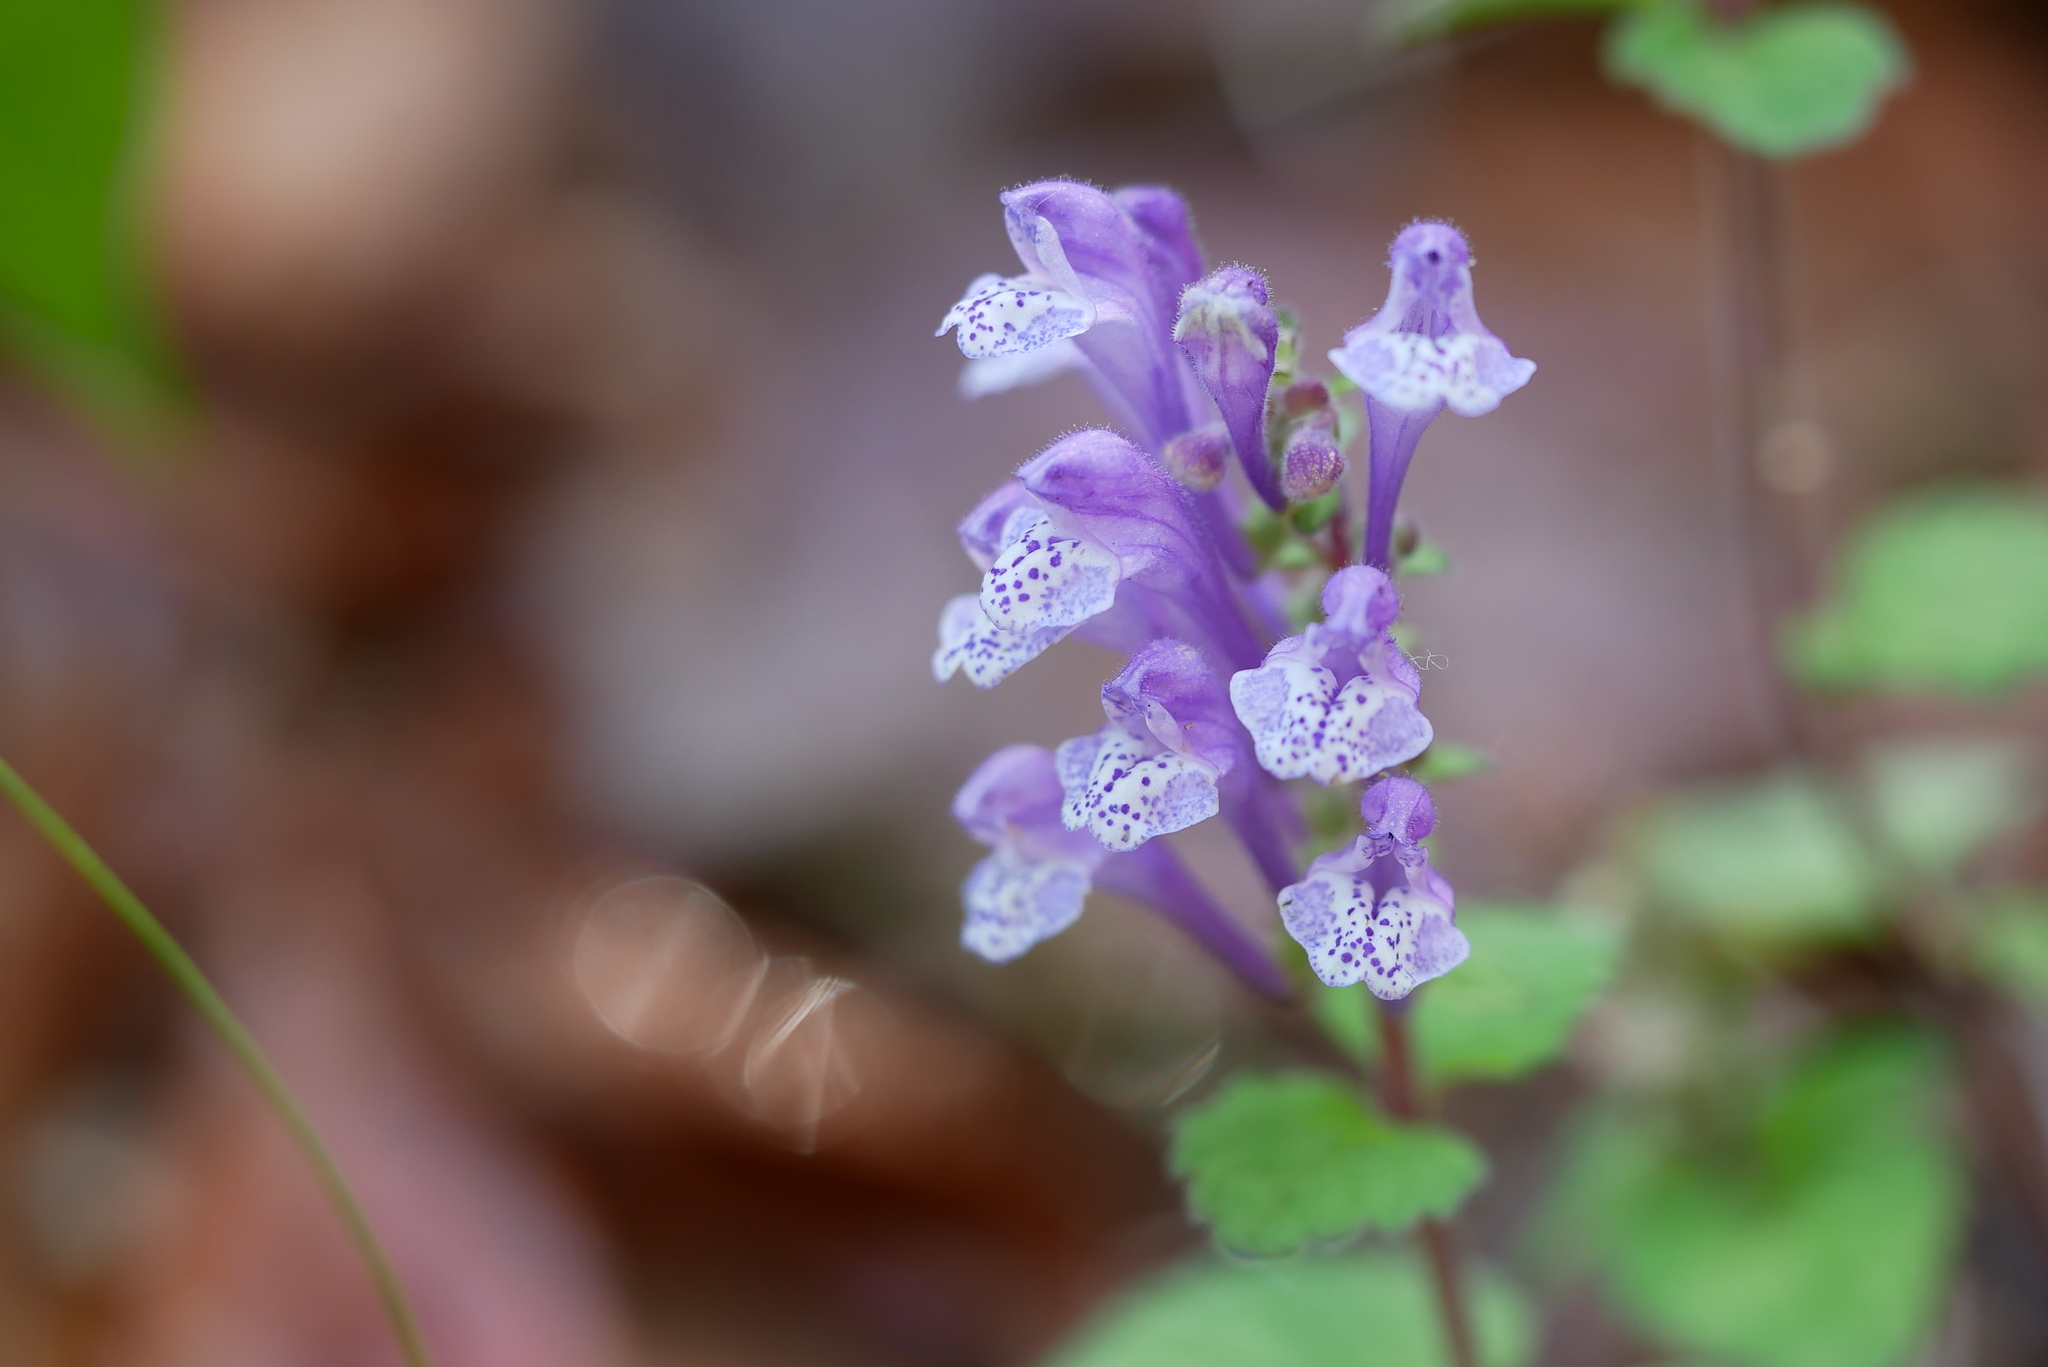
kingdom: Plantae
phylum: Tracheophyta
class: Magnoliopsida
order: Lamiales
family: Lamiaceae
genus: Scutellaria
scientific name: Scutellaria indica
